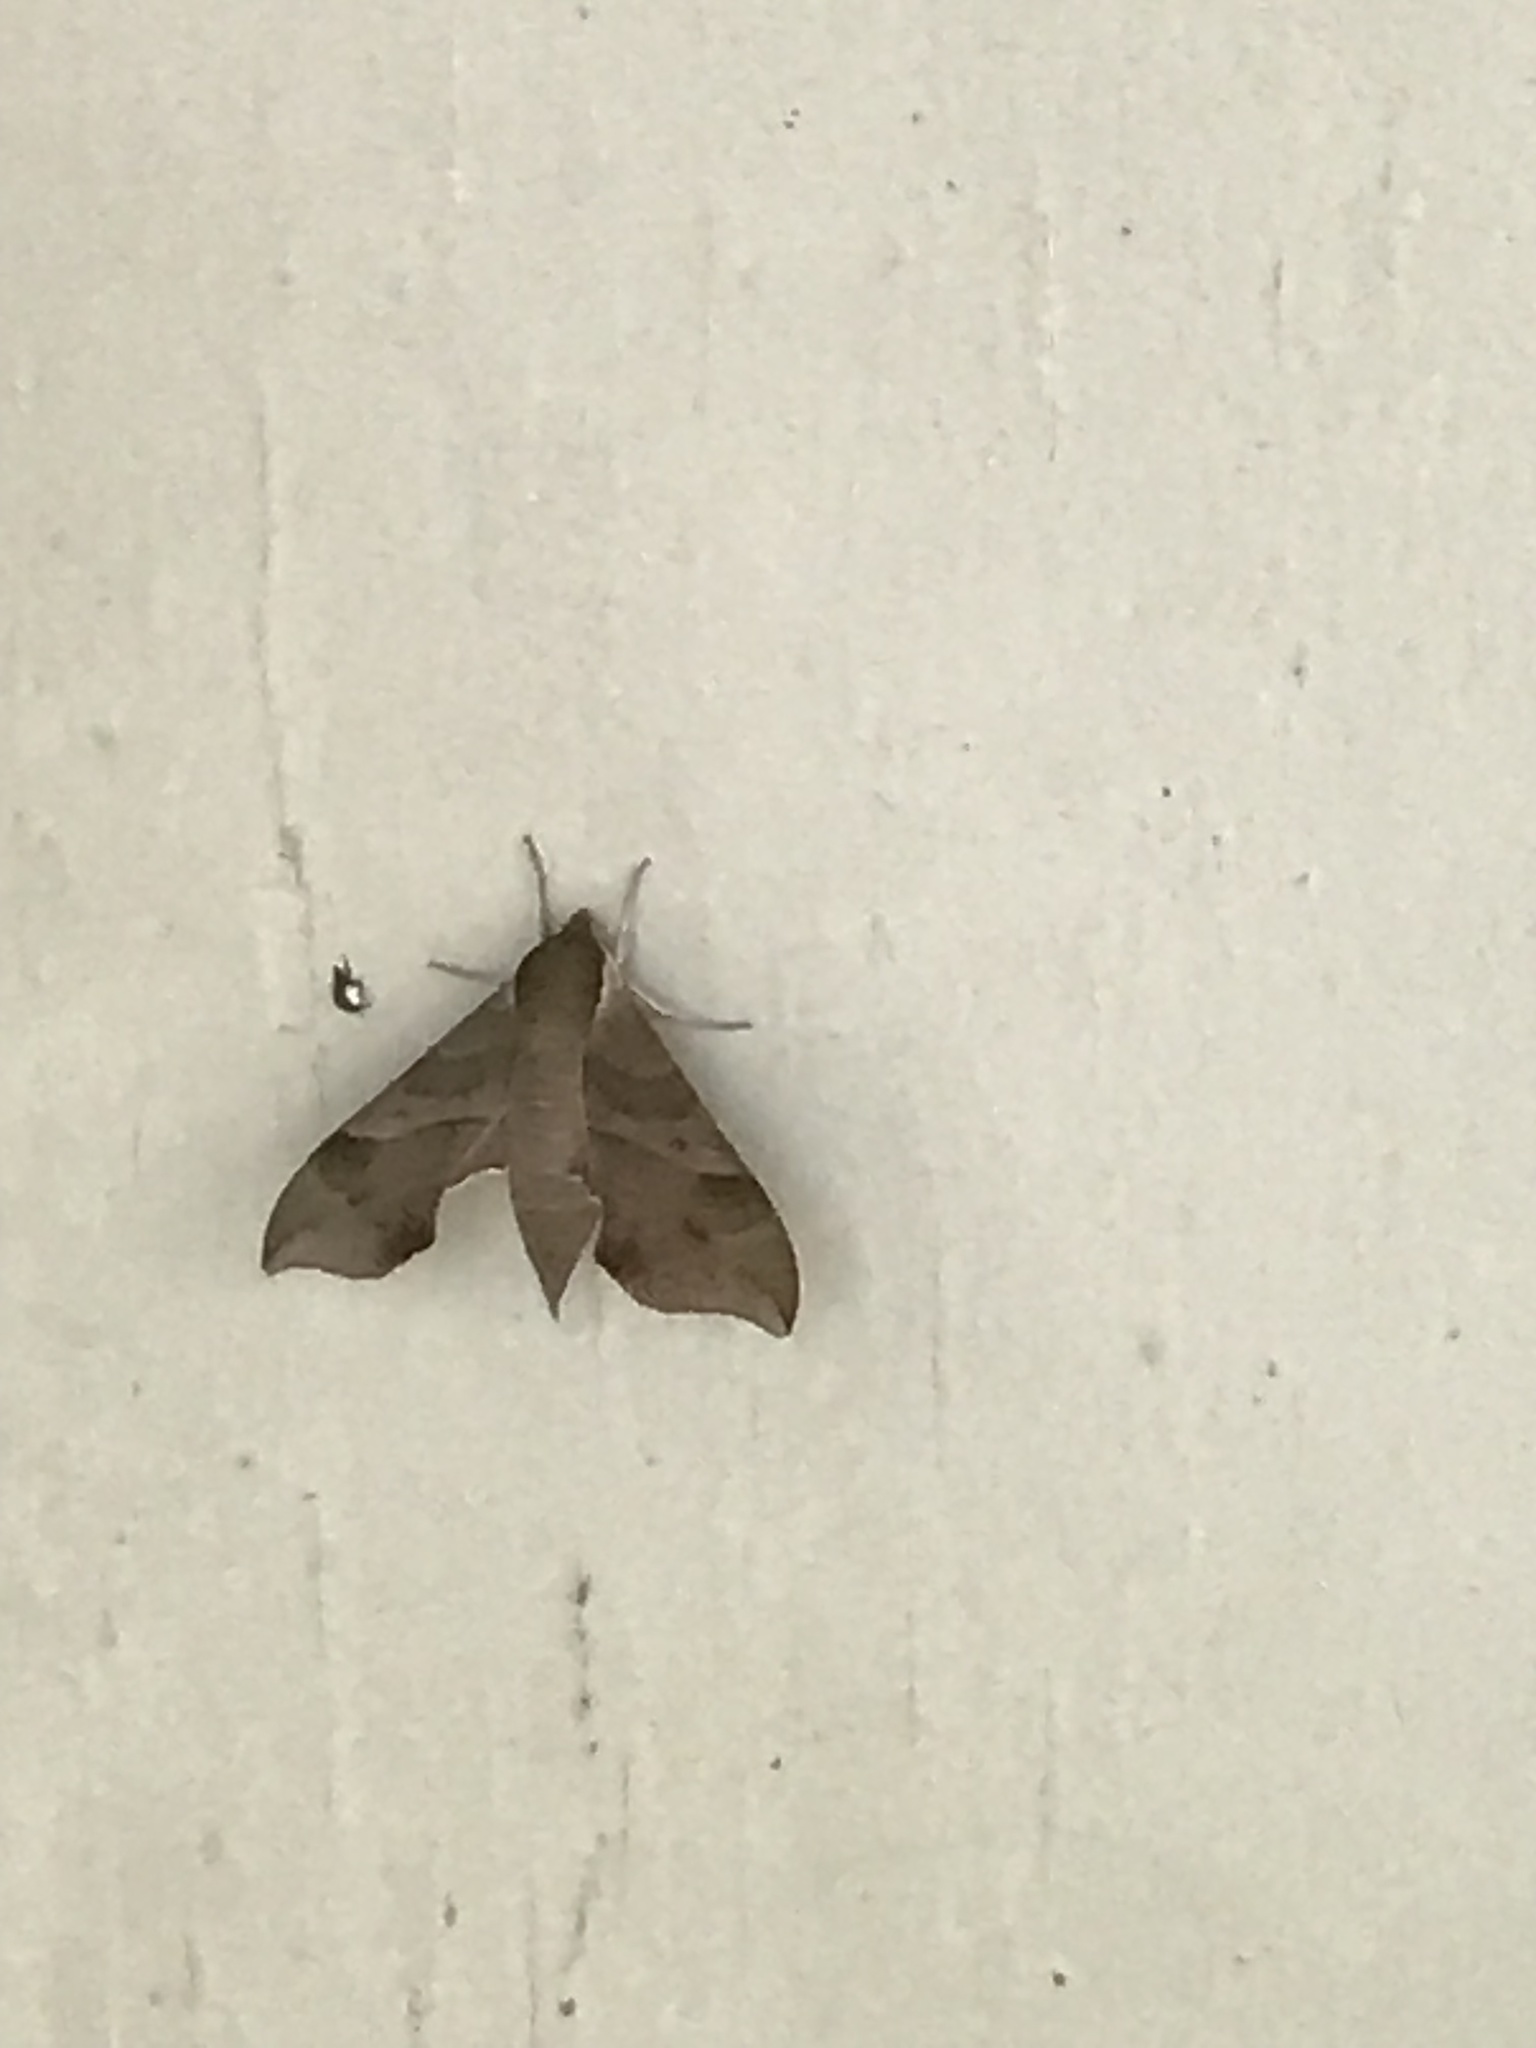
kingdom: Animalia
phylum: Arthropoda
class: Insecta
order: Lepidoptera
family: Sphingidae
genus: Darapsa
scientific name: Darapsa myron
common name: Hog sphinx
